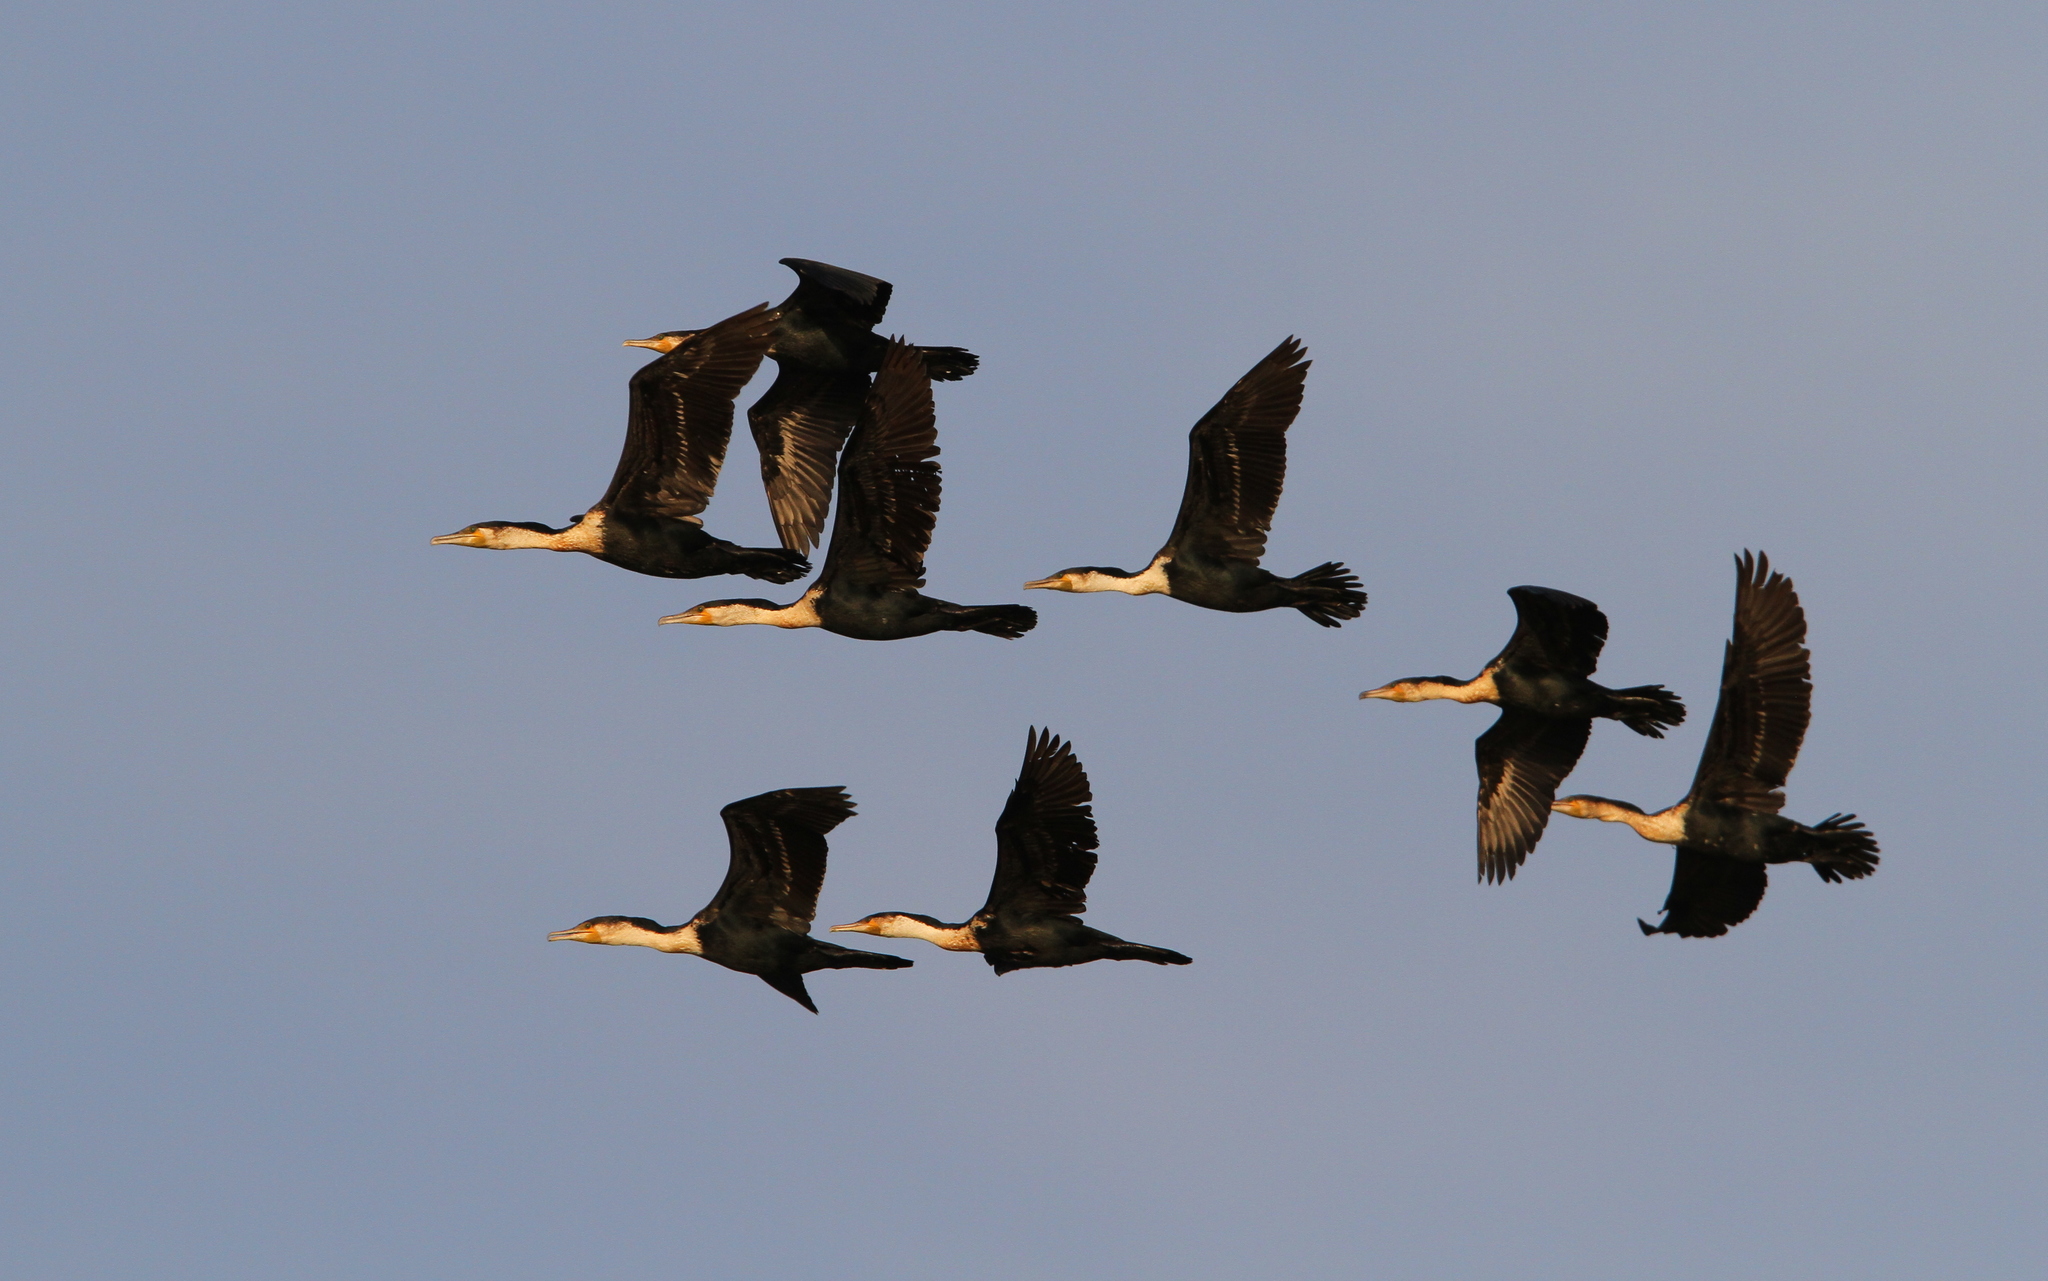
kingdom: Animalia
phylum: Chordata
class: Aves
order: Suliformes
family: Phalacrocoracidae
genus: Phalacrocorax
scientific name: Phalacrocorax carbo
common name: Great cormorant
